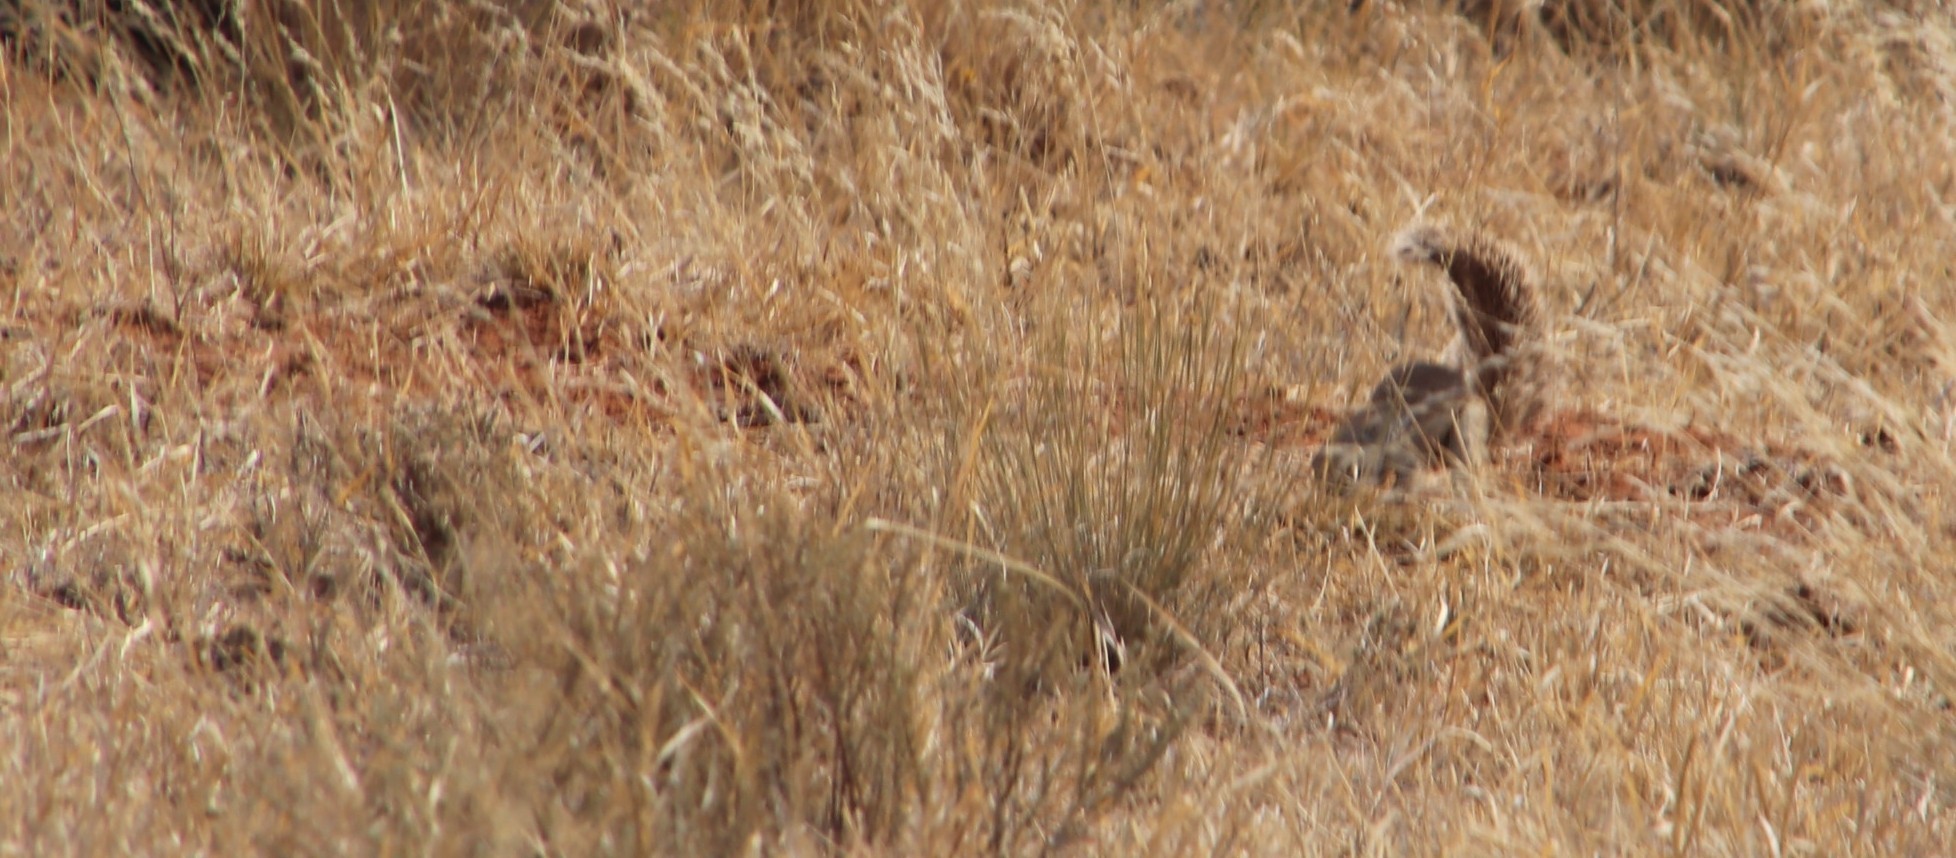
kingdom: Animalia
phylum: Chordata
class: Mammalia
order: Rodentia
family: Sciuridae
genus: Xerus
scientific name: Xerus inauris
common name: South african ground squirrel
